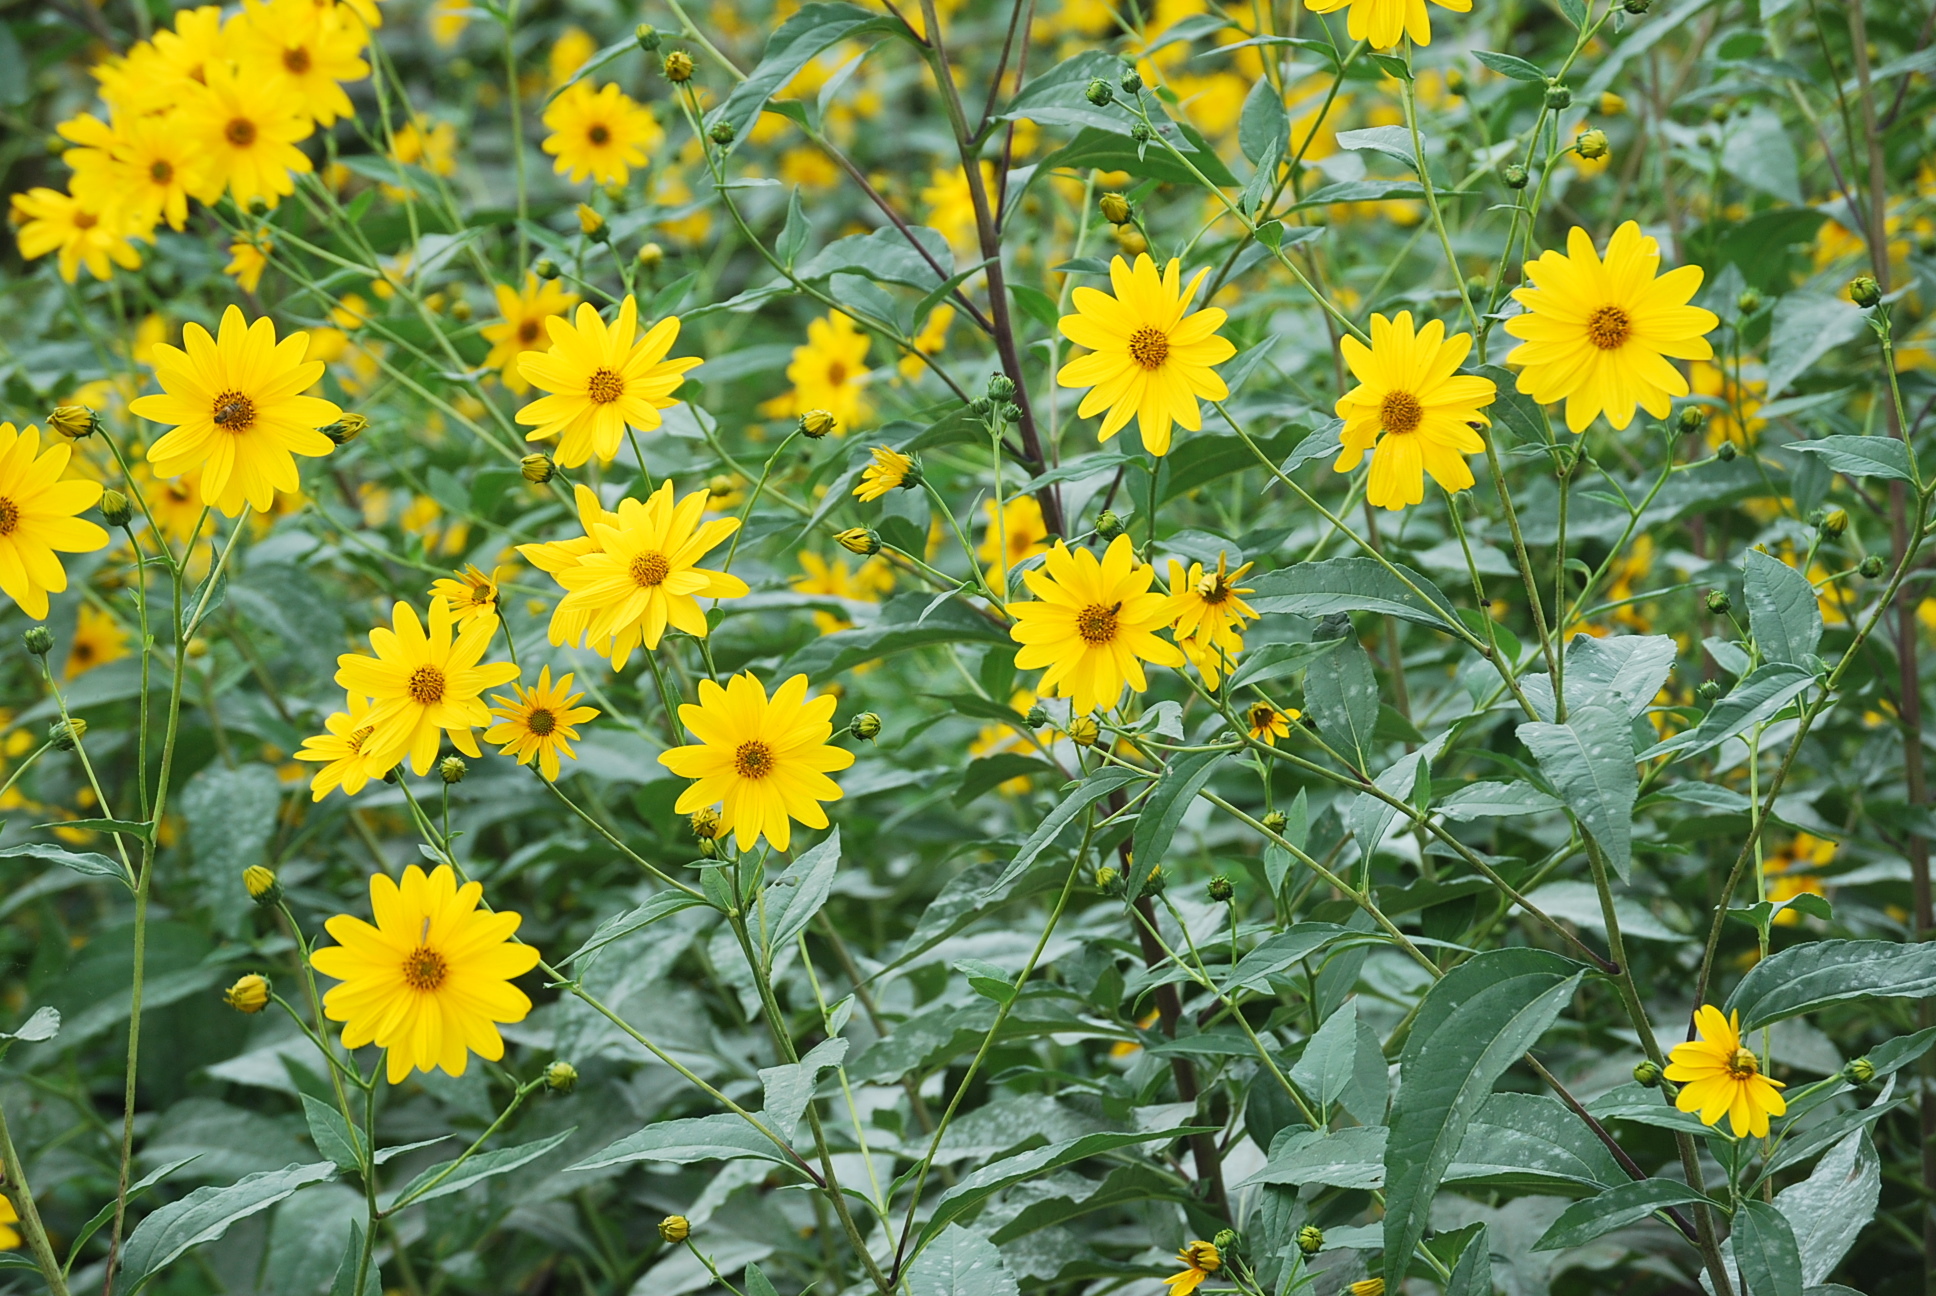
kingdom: Plantae
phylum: Tracheophyta
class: Magnoliopsida
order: Asterales
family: Asteraceae
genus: Helianthus
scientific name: Helianthus tuberosus
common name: Jerusalem artichoke
